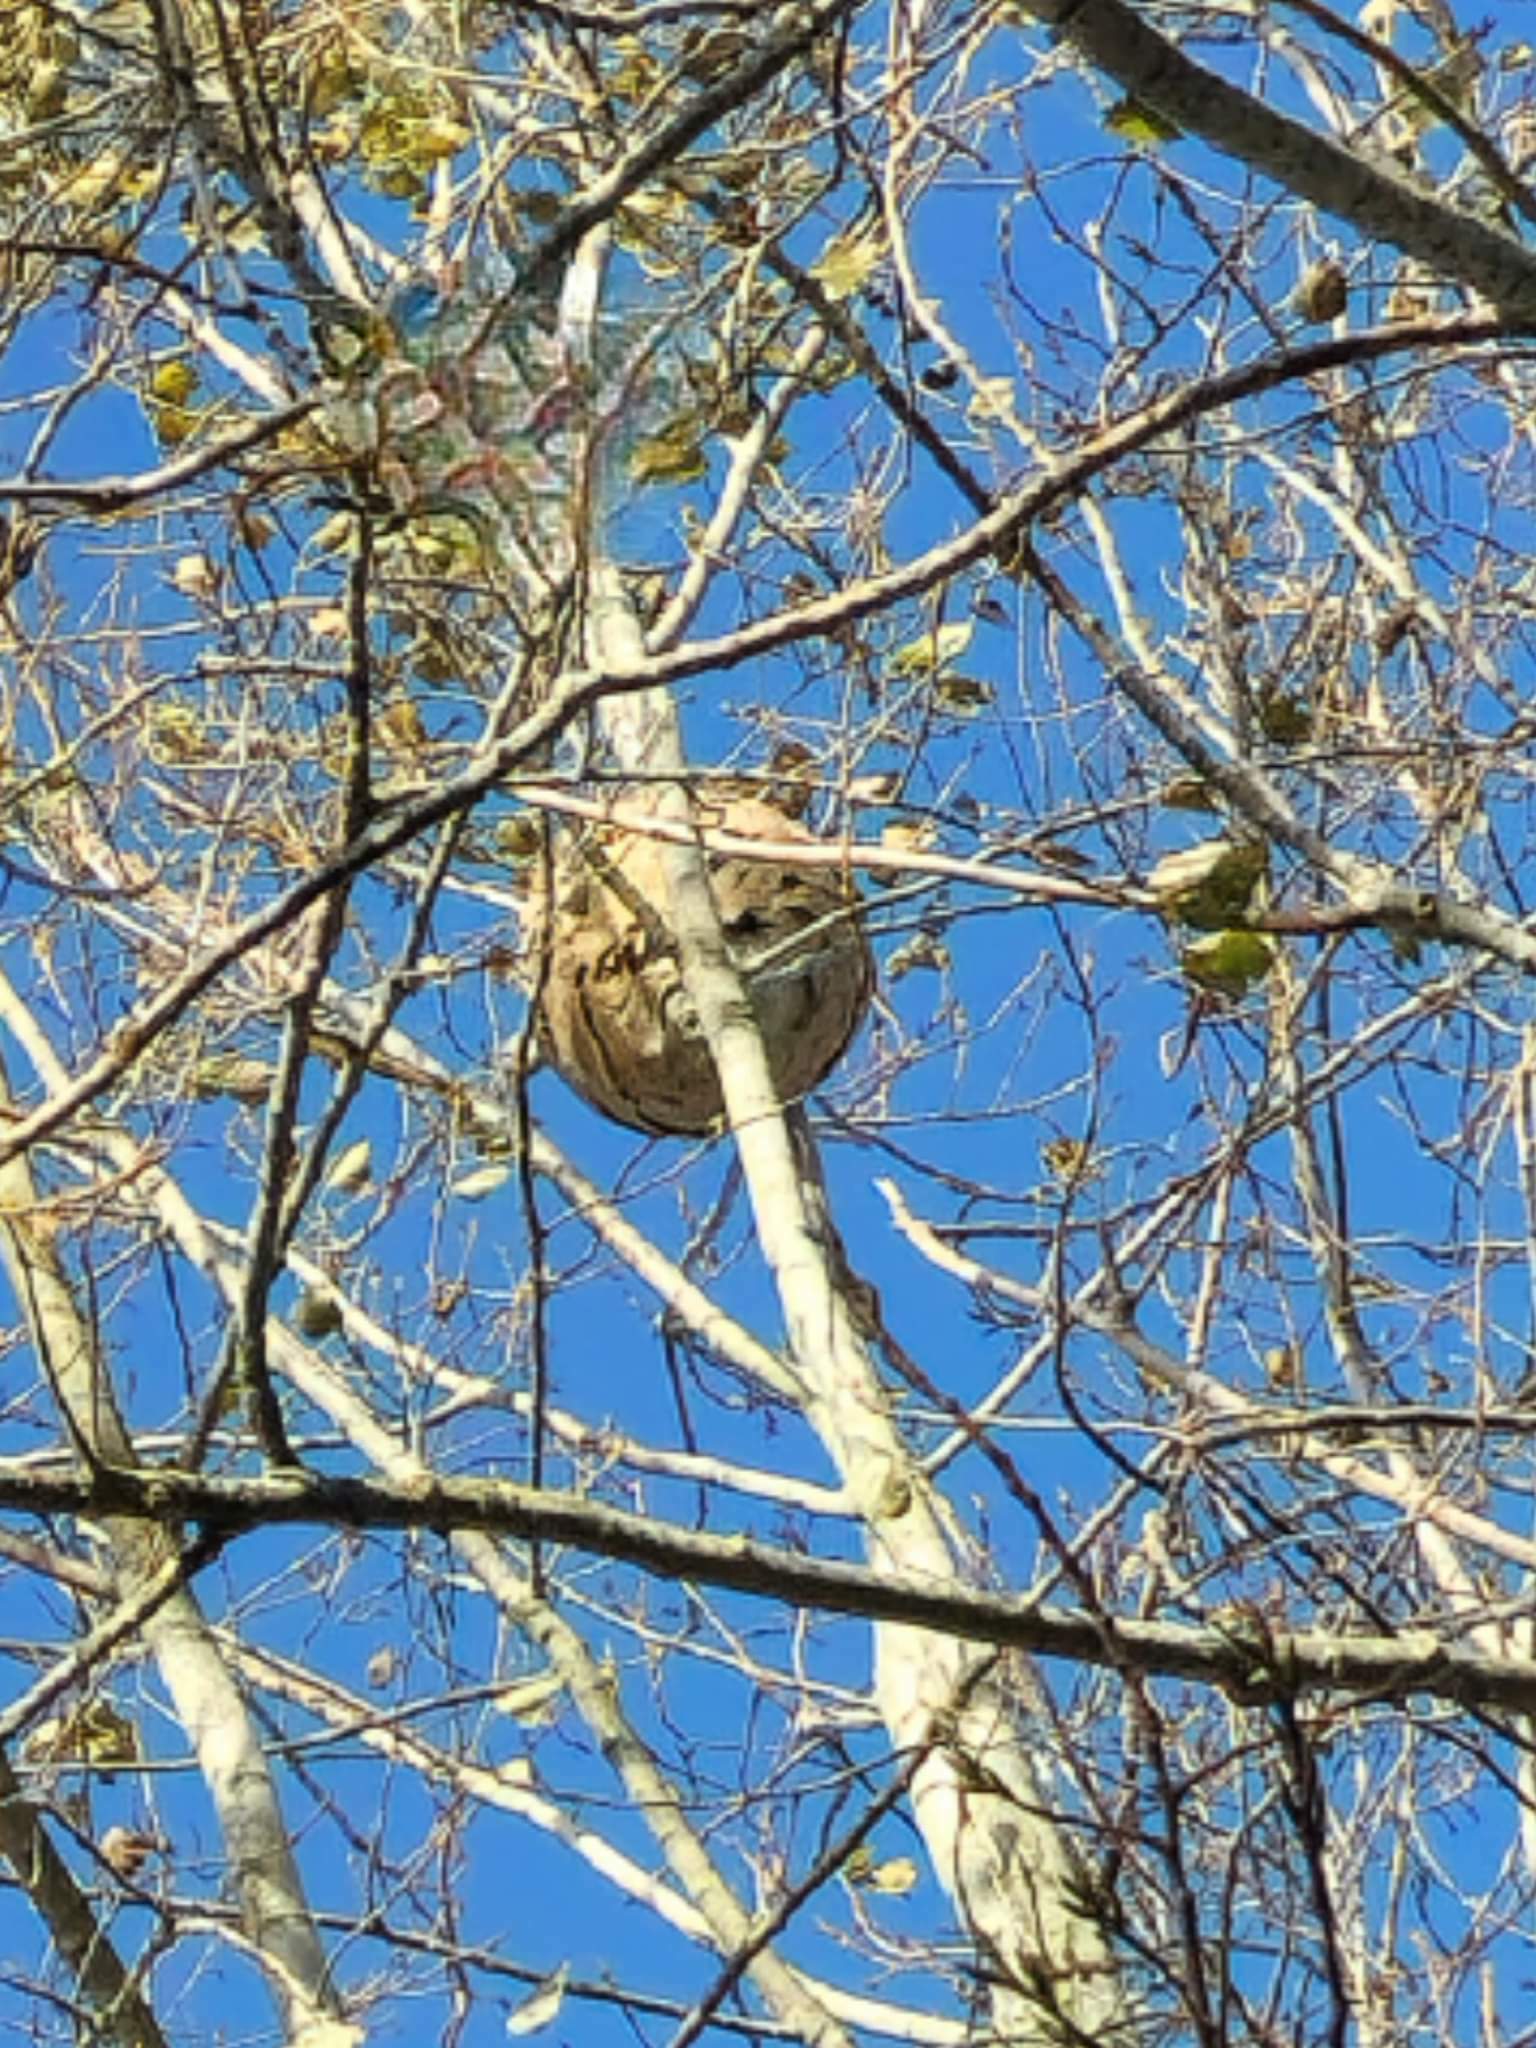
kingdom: Animalia
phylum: Arthropoda
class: Insecta
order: Hymenoptera
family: Vespidae
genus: Vespa
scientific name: Vespa velutina
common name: Asian hornet
